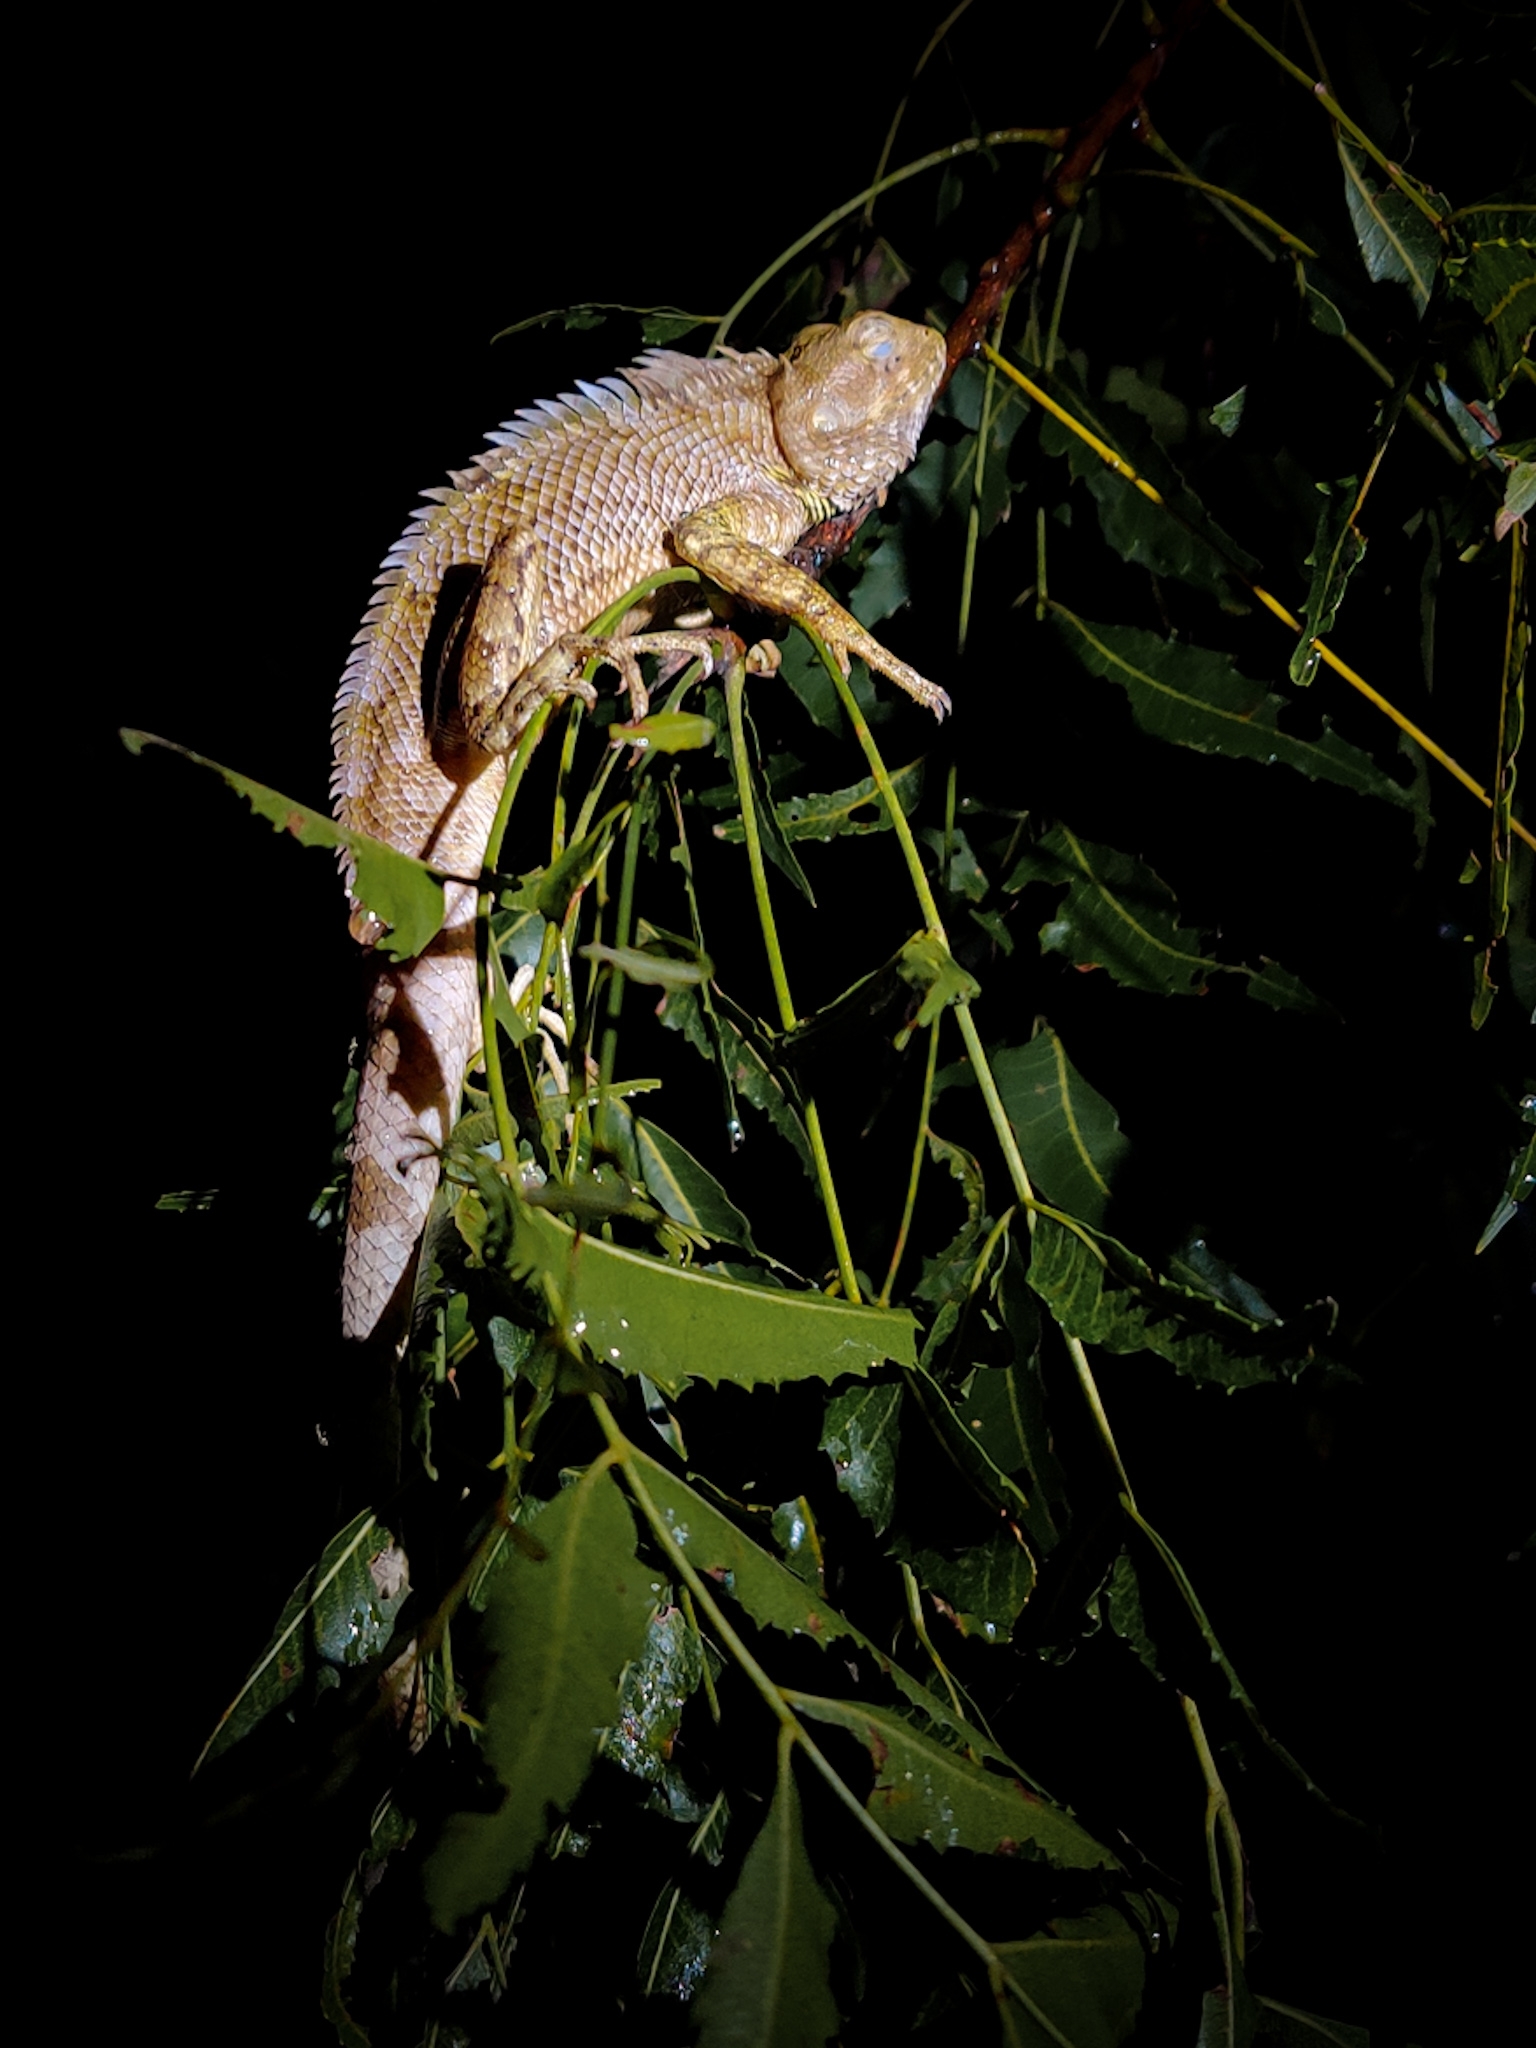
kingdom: Animalia
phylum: Chordata
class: Squamata
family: Agamidae
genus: Calotes
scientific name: Calotes versicolor
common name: Oriental garden lizard
